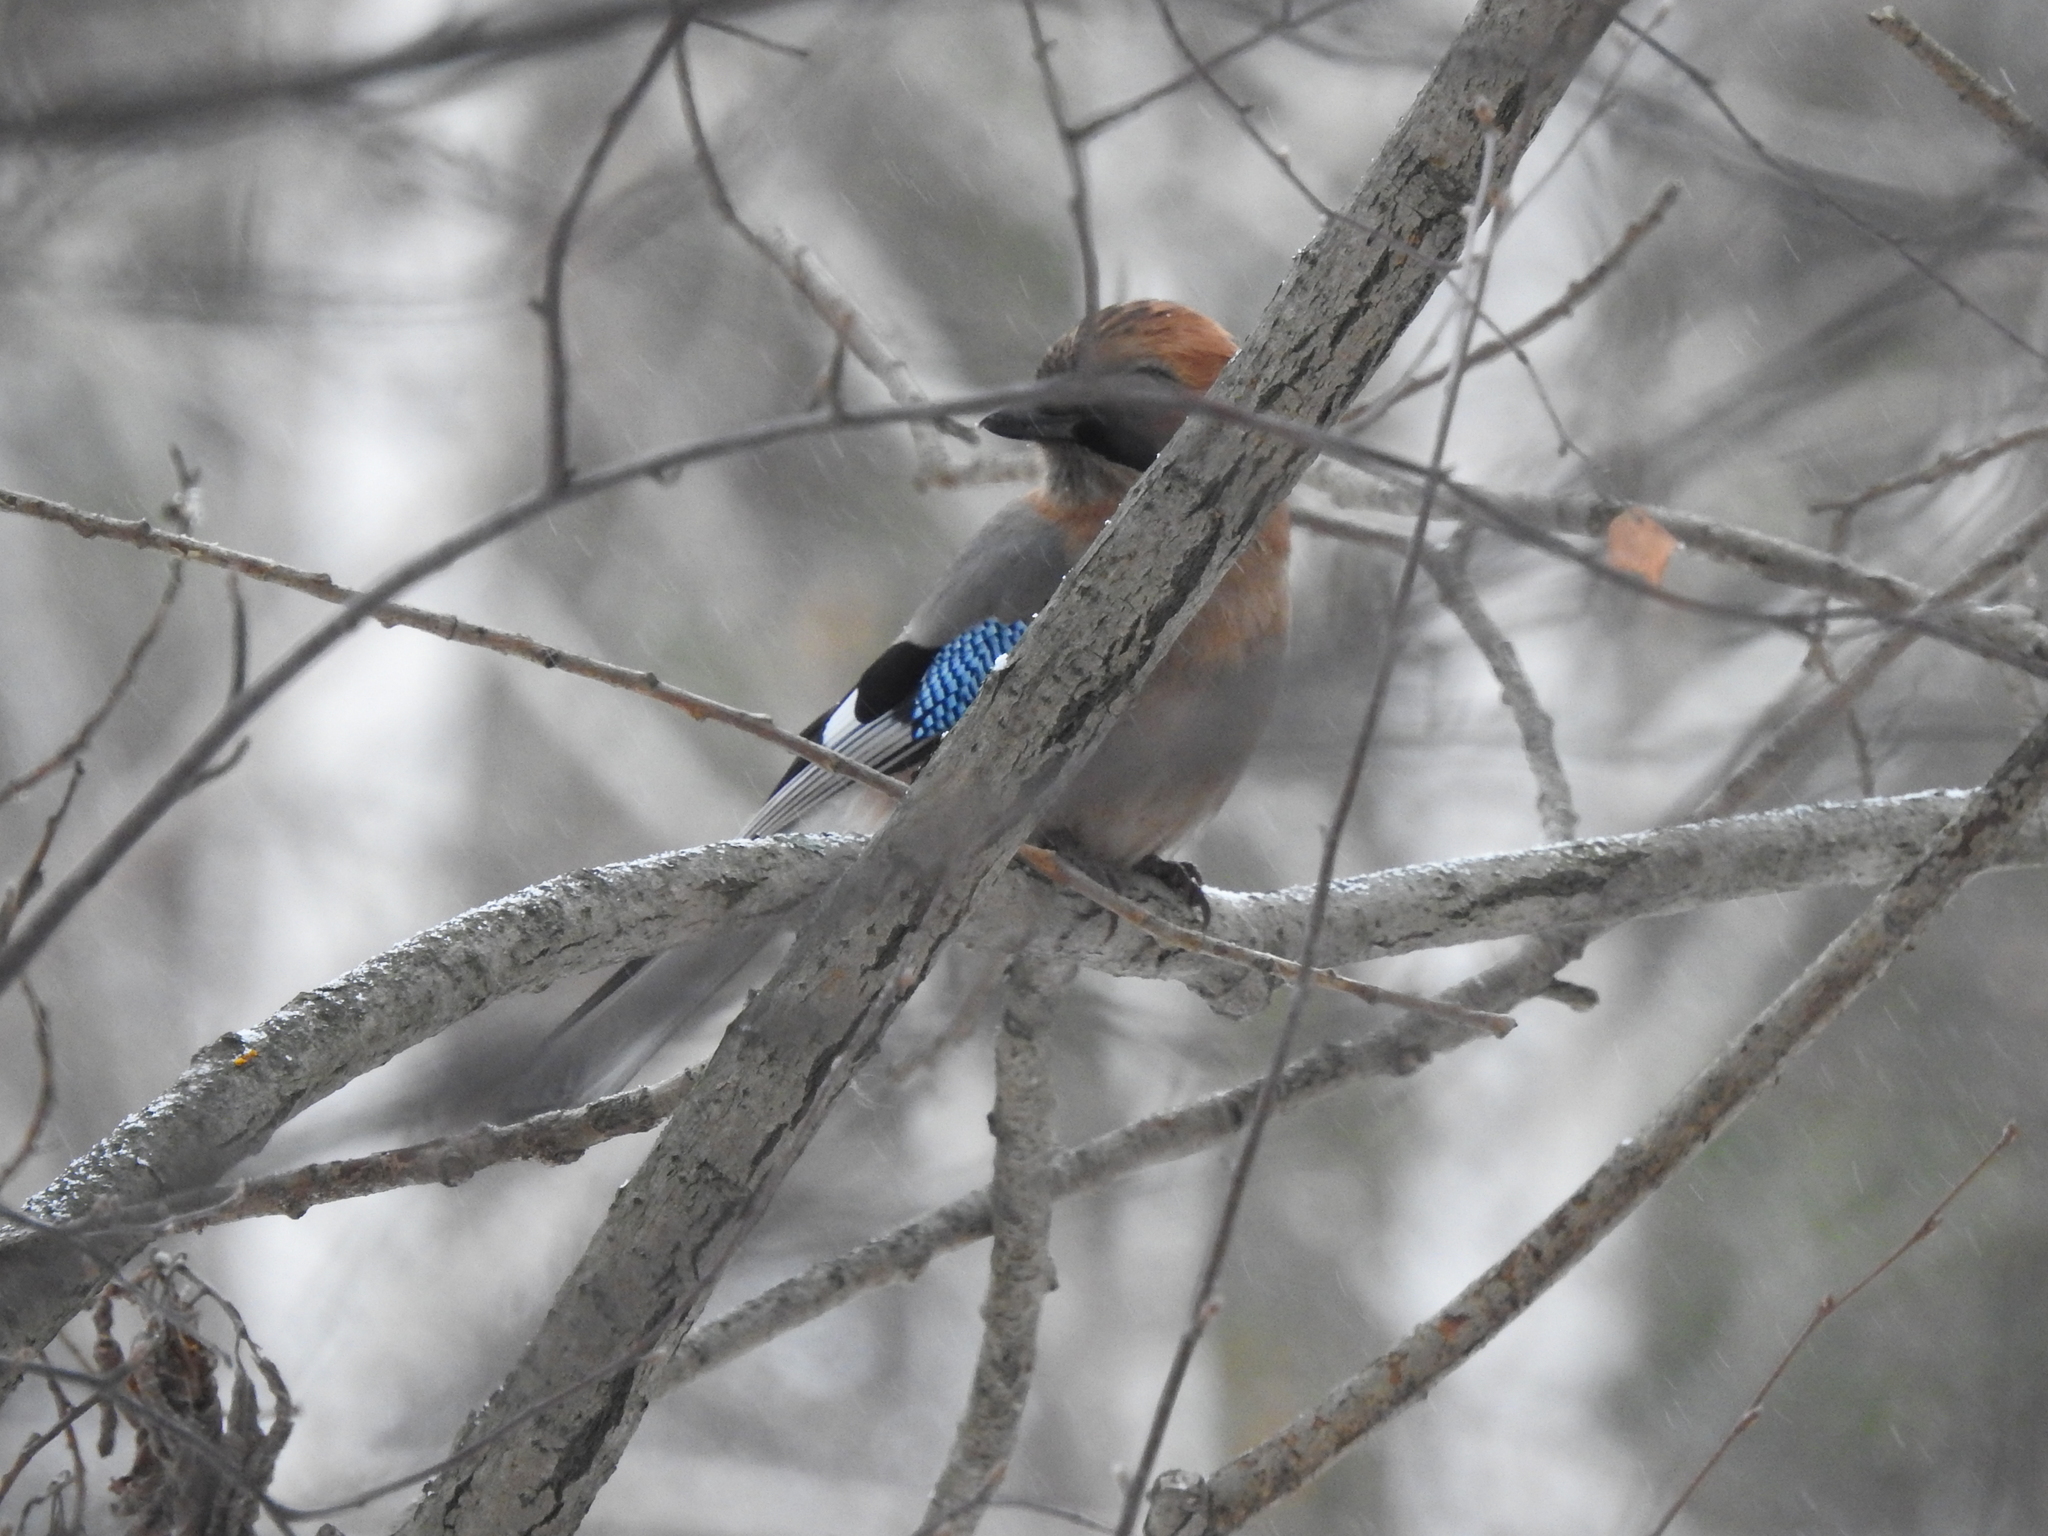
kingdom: Animalia
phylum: Chordata
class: Aves
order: Passeriformes
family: Corvidae
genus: Garrulus
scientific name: Garrulus glandarius
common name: Eurasian jay
